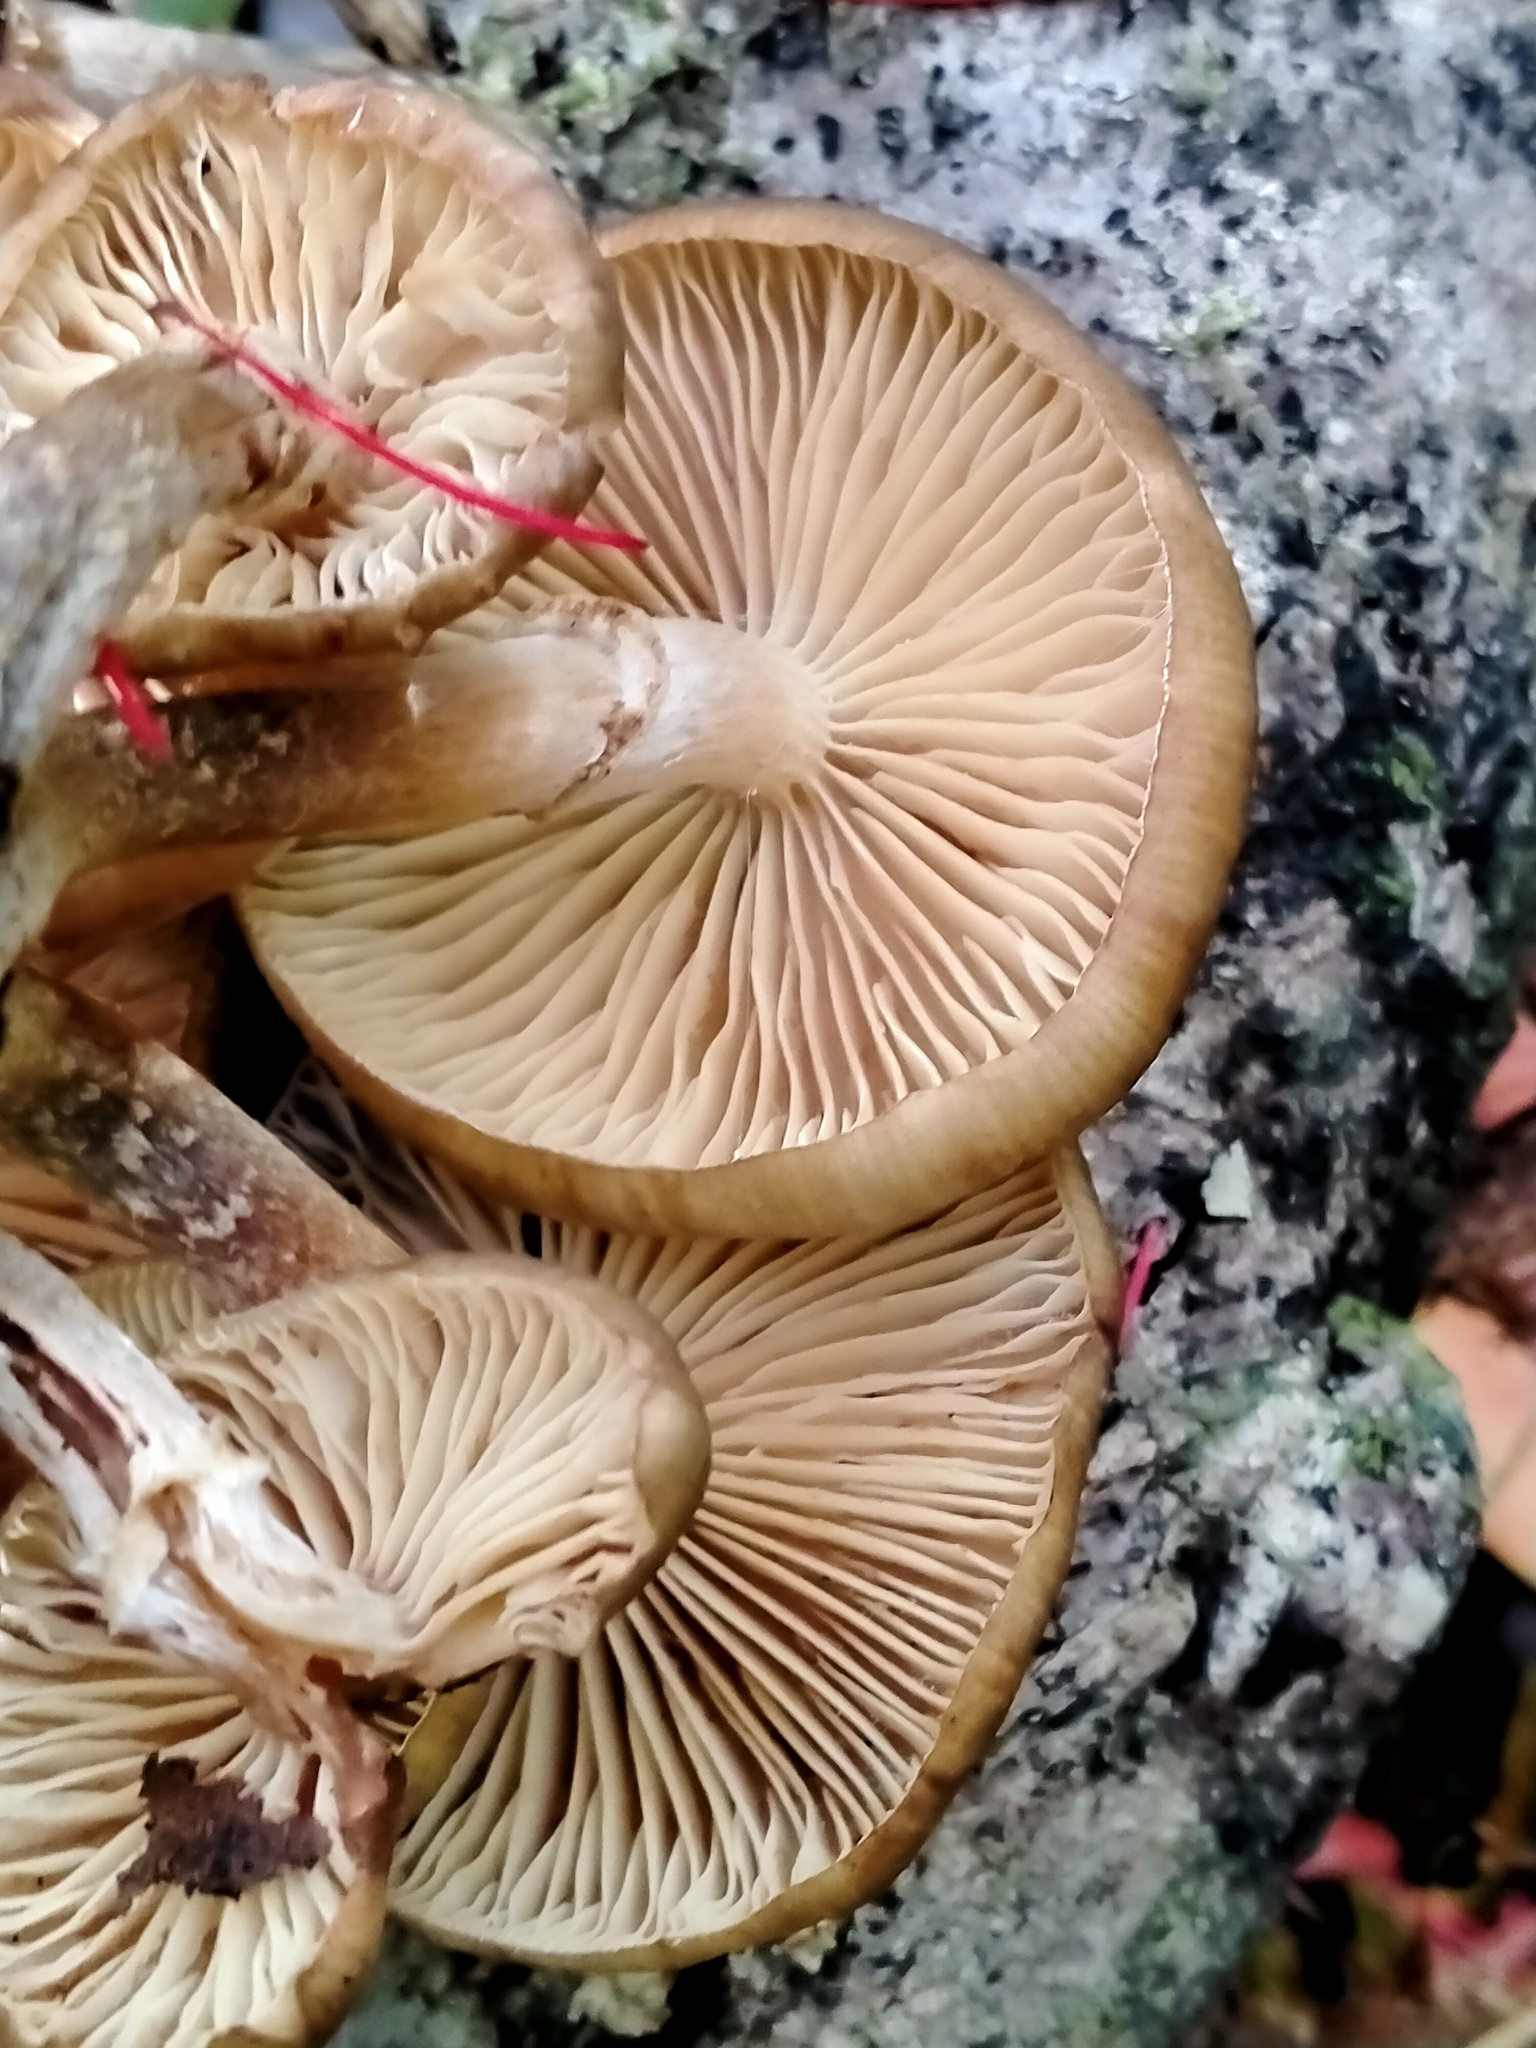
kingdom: Fungi
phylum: Basidiomycota
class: Agaricomycetes
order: Agaricales
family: Physalacriaceae
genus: Armillaria
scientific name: Armillaria novae-zelandiae
